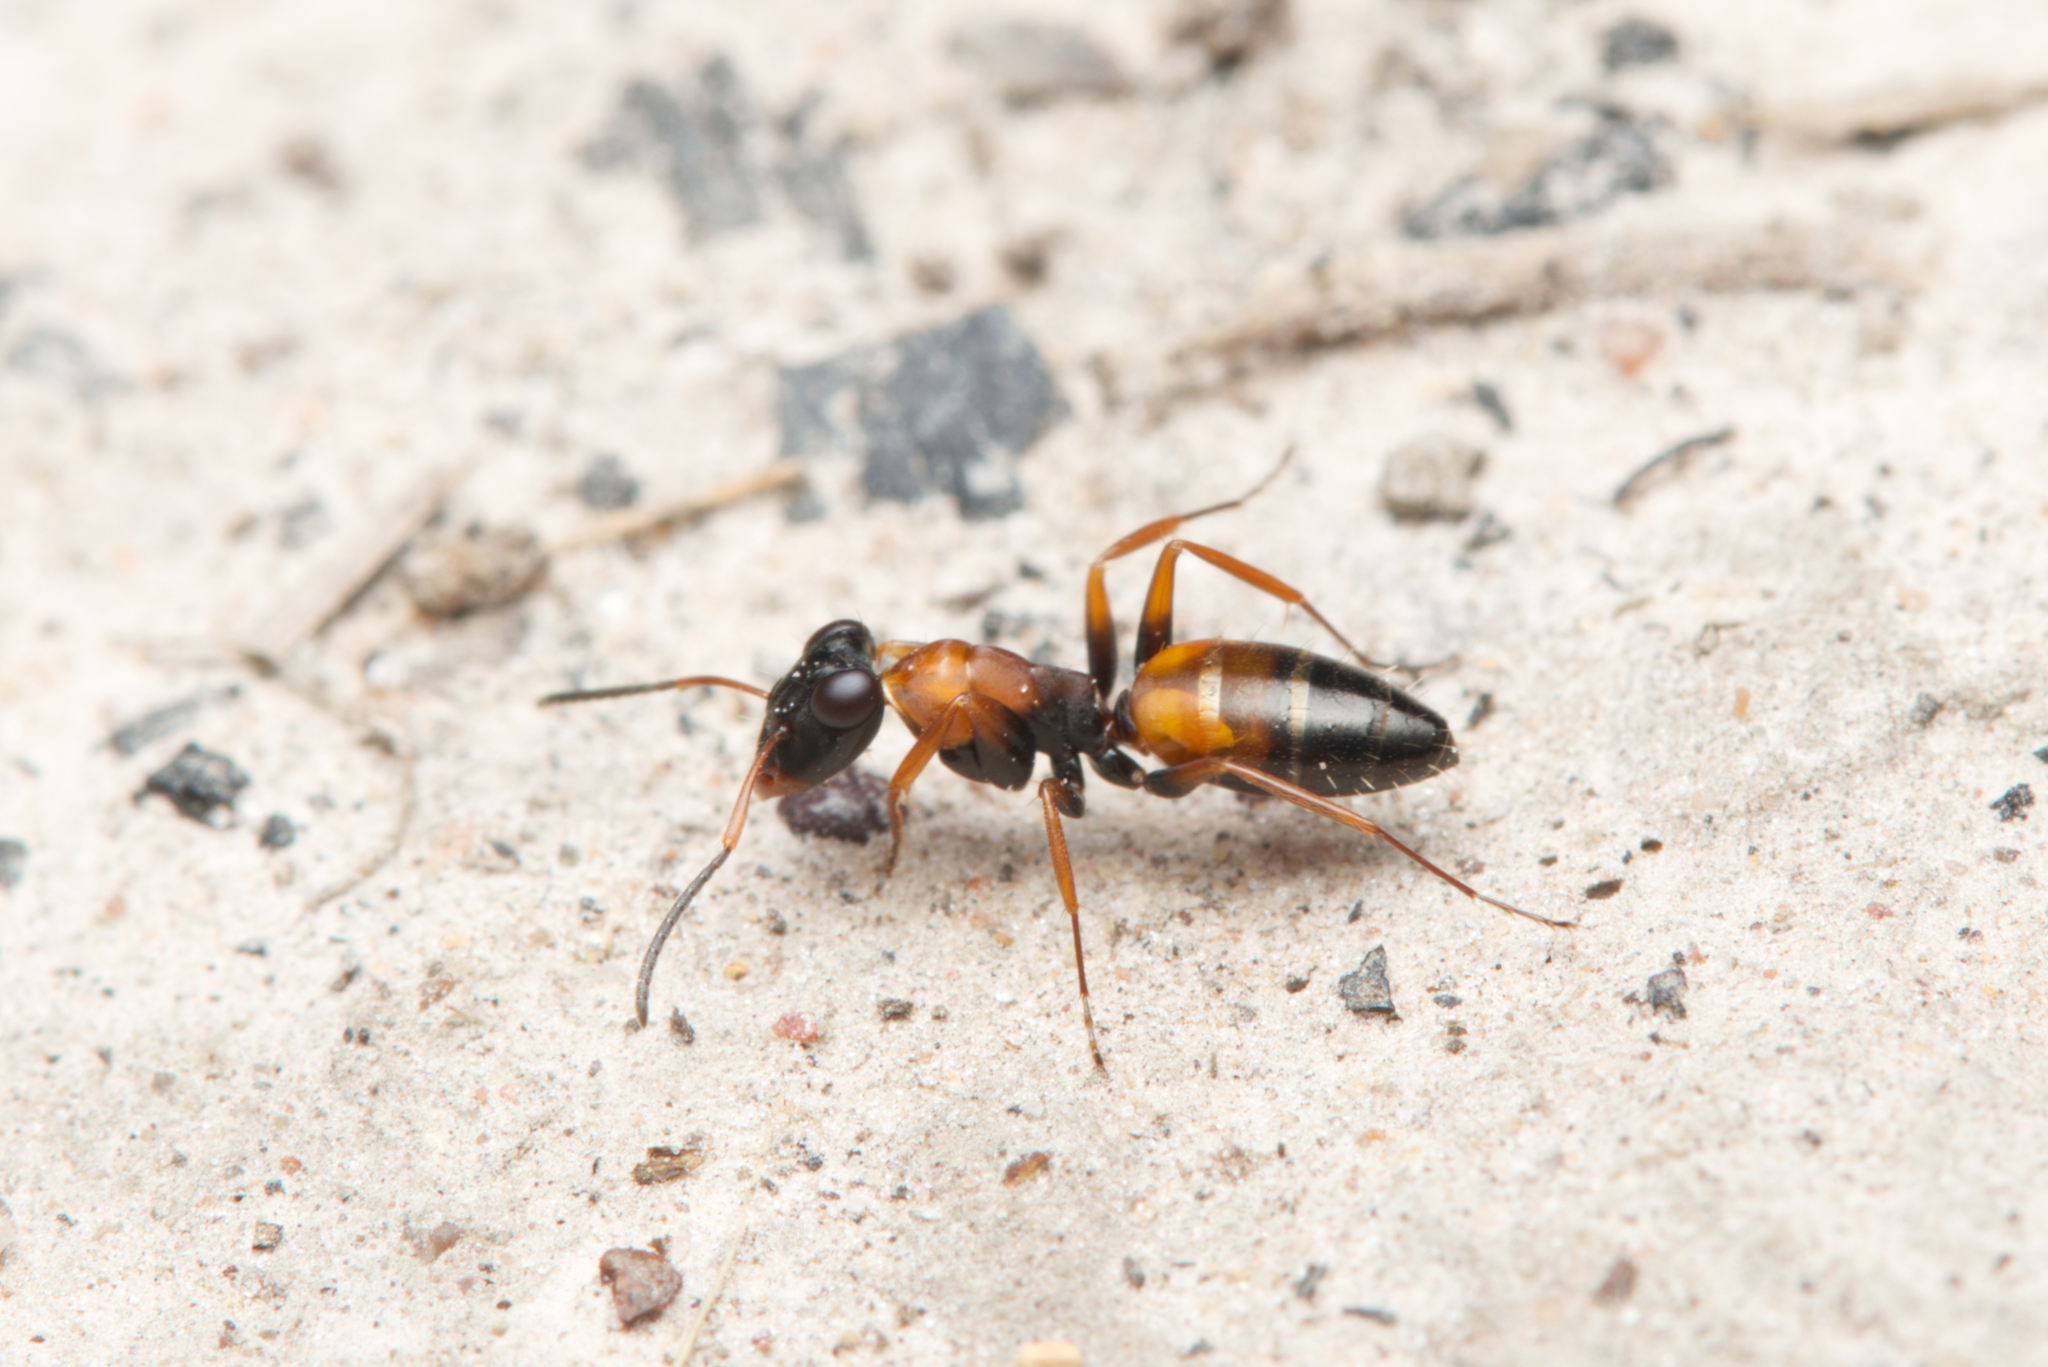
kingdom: Animalia
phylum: Arthropoda
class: Insecta
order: Hymenoptera
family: Formicidae
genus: Opisthopsis
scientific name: Opisthopsis pictus
